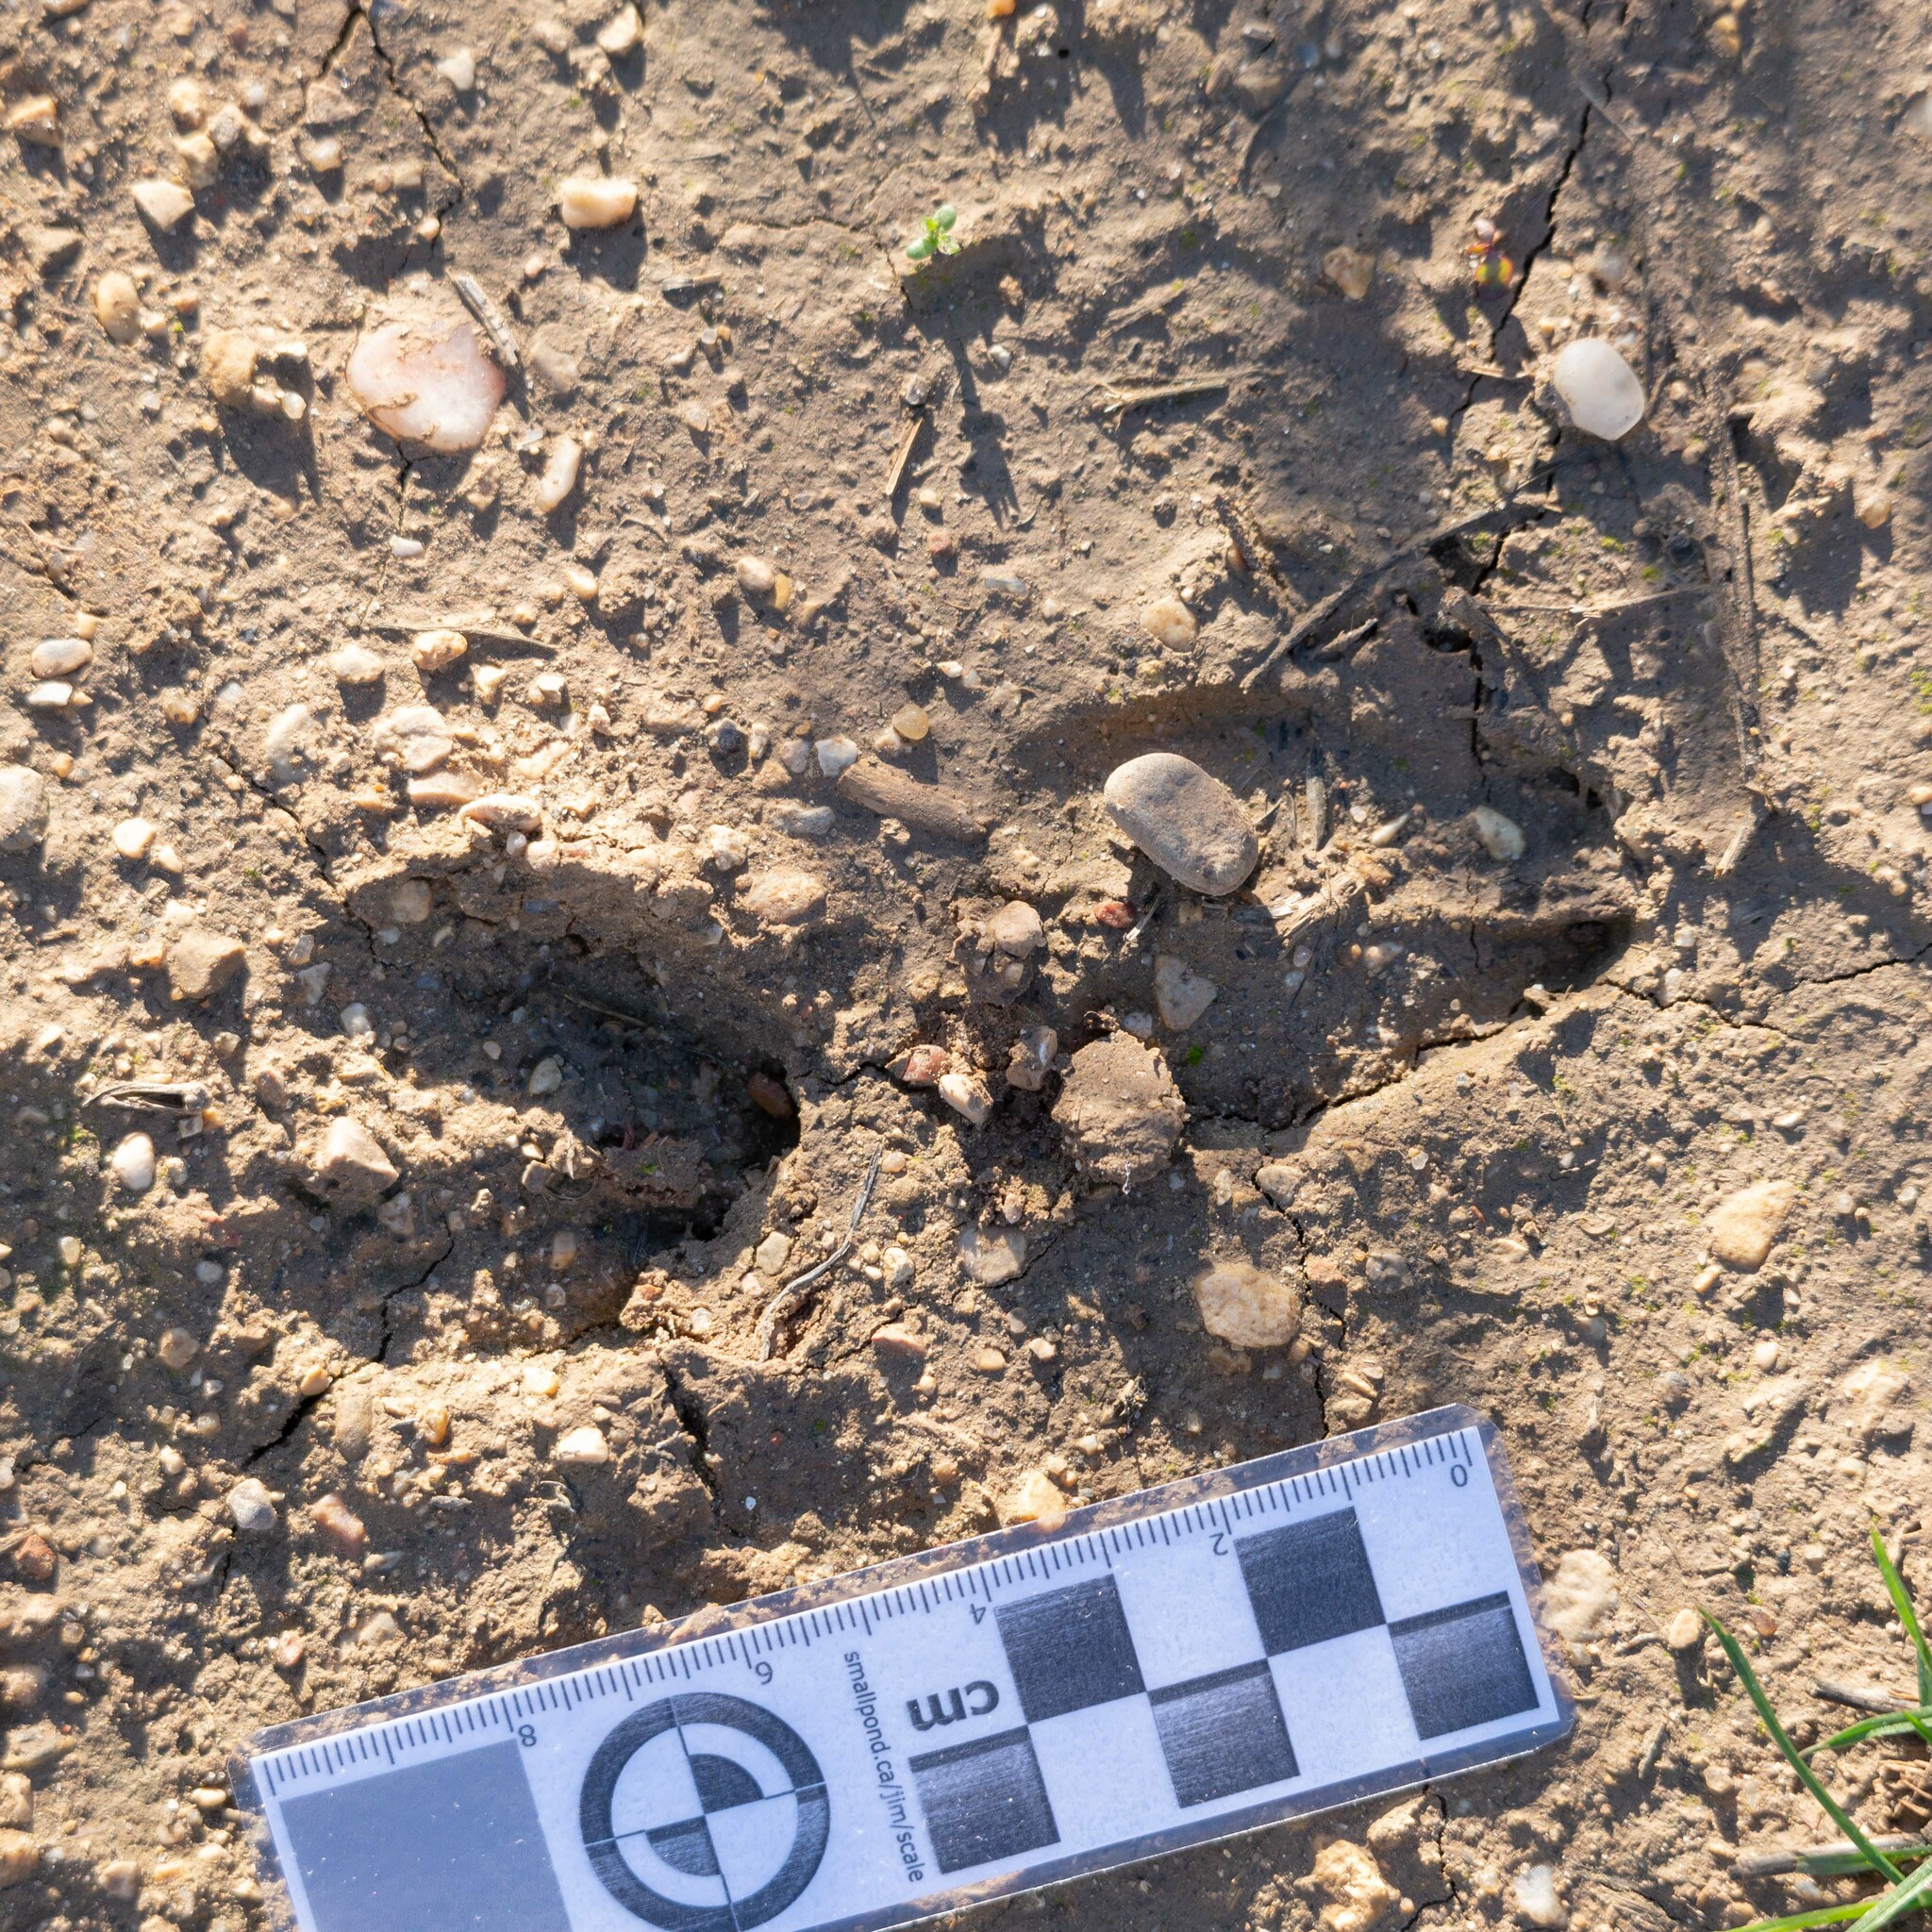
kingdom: Animalia
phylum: Chordata
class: Mammalia
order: Artiodactyla
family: Cervidae
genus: Capreolus
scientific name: Capreolus capreolus
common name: Western roe deer
